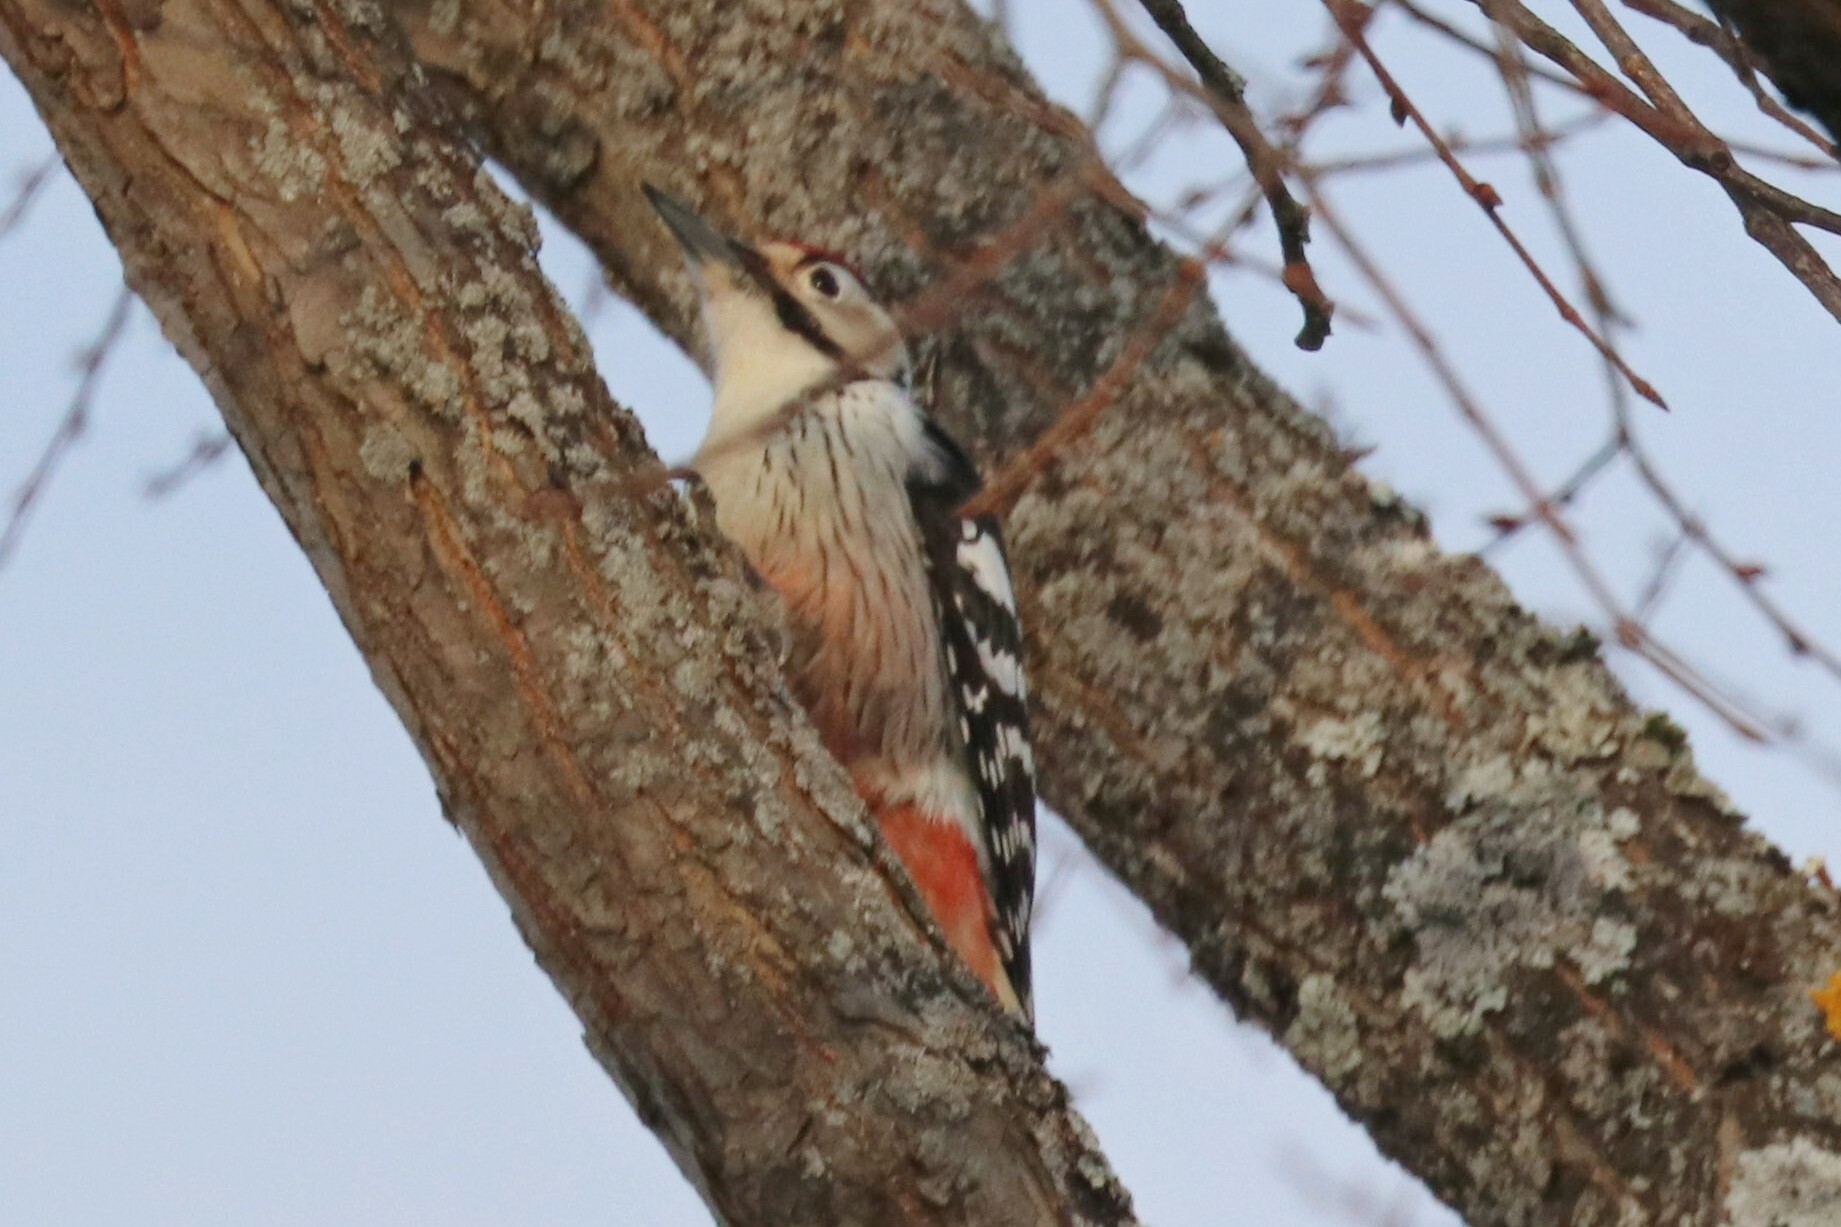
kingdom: Animalia
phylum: Chordata
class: Aves
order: Piciformes
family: Picidae
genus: Dendrocopos
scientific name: Dendrocopos leucotos
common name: White-backed woodpecker
